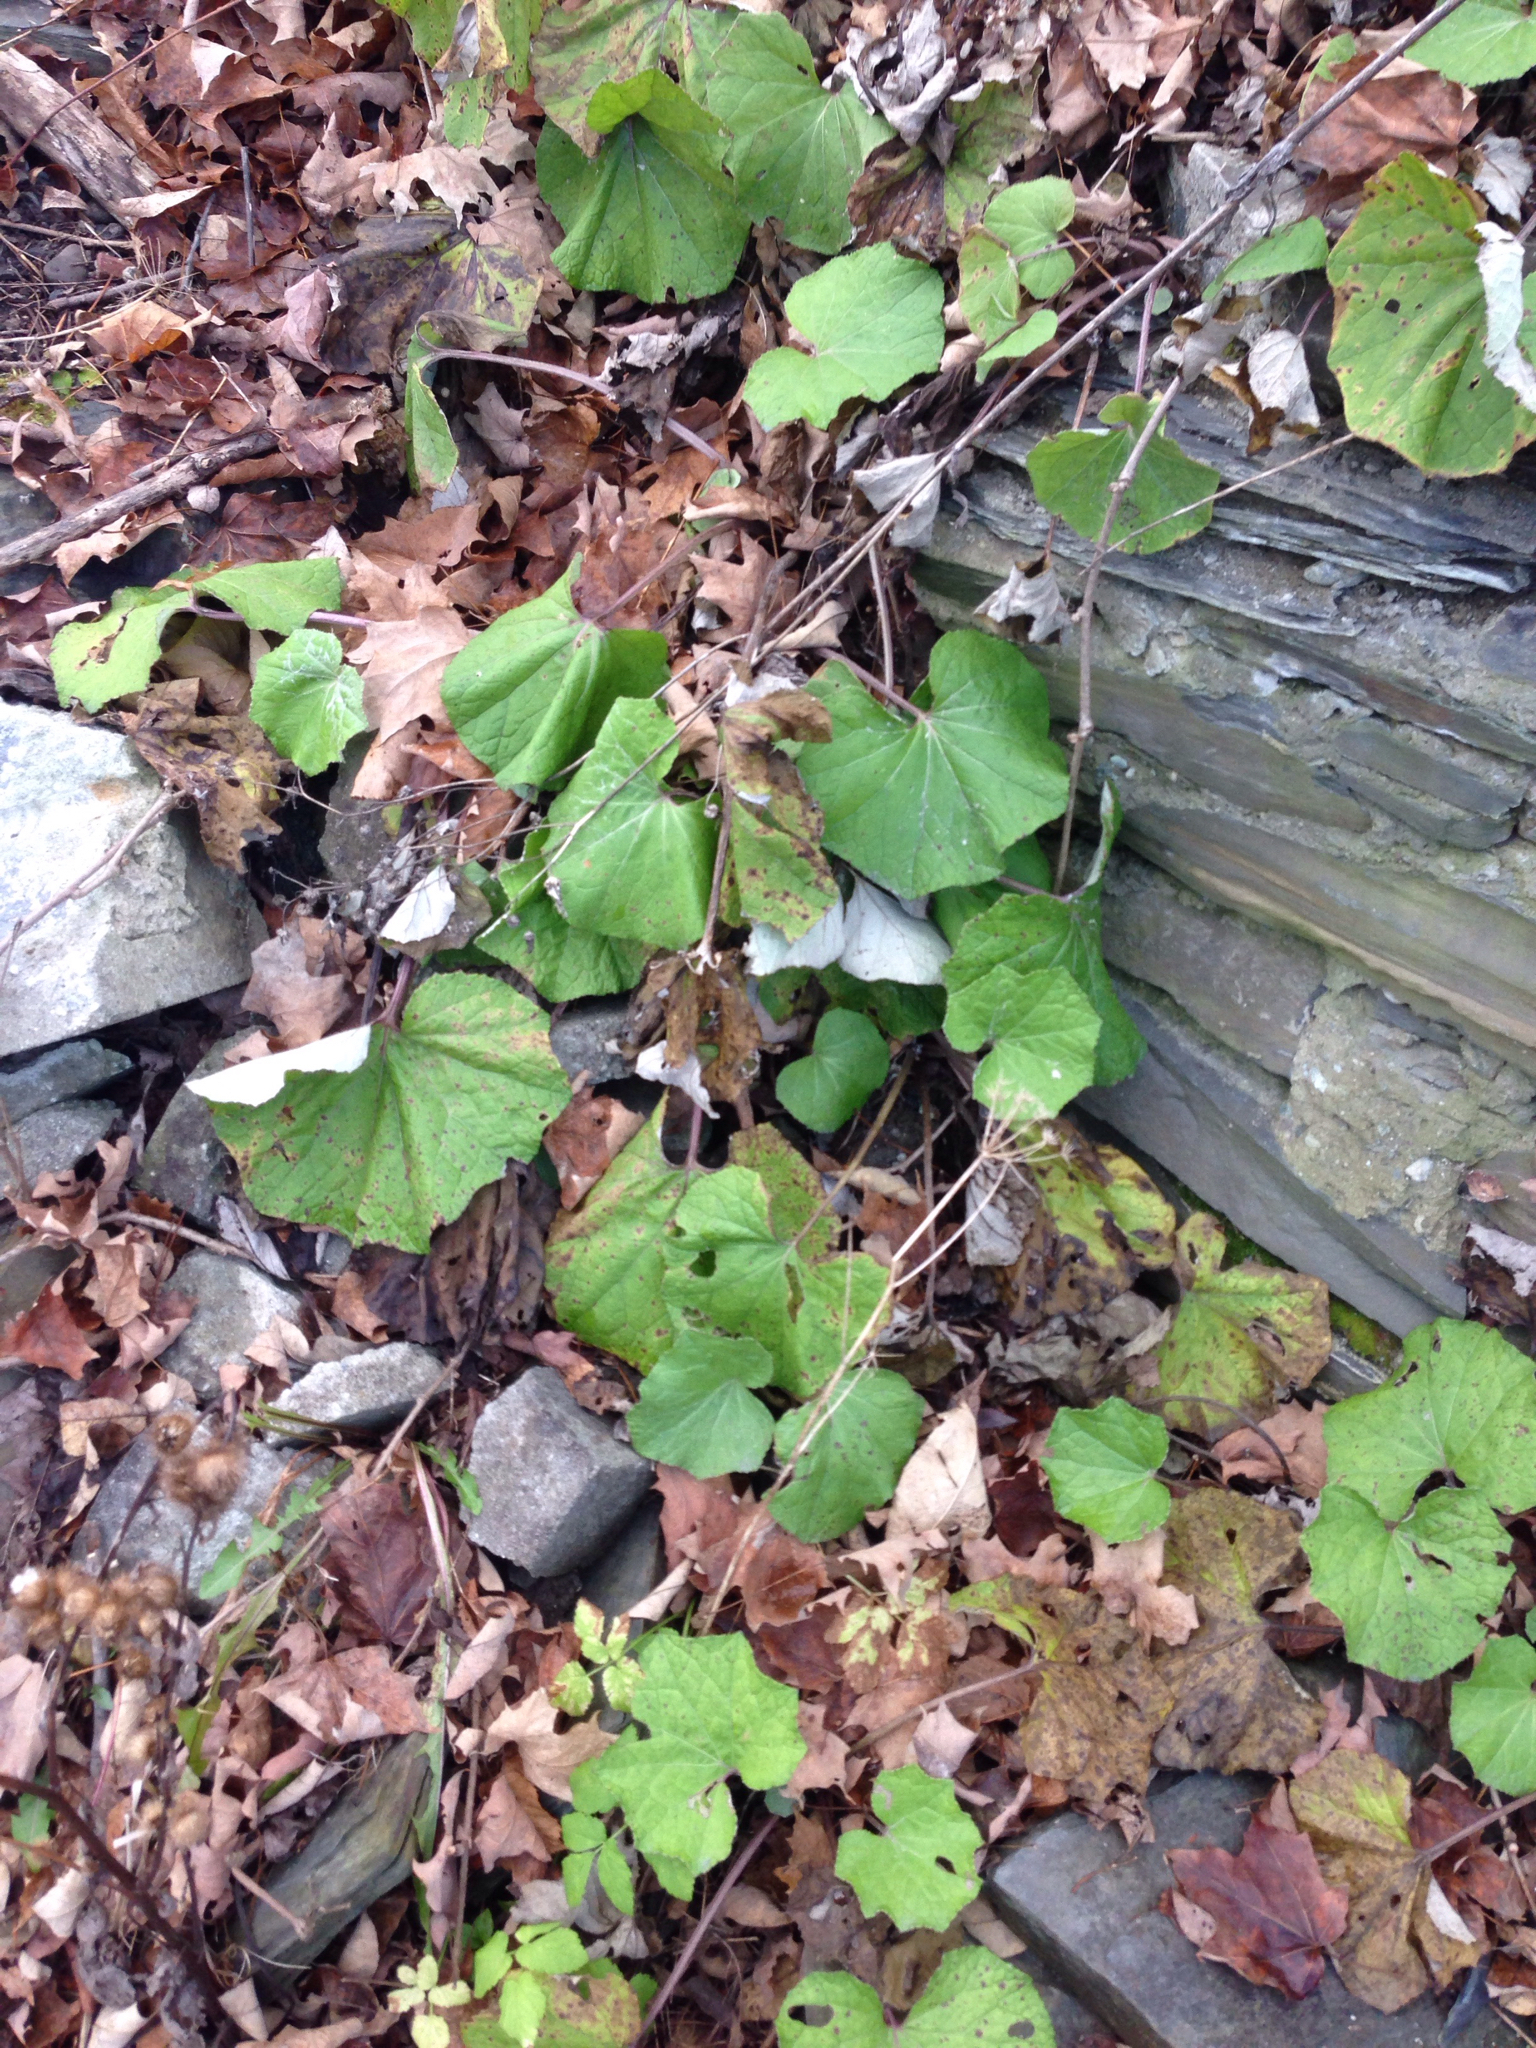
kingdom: Plantae
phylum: Tracheophyta
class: Magnoliopsida
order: Asterales
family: Asteraceae
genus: Tussilago
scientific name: Tussilago farfara
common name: Coltsfoot
